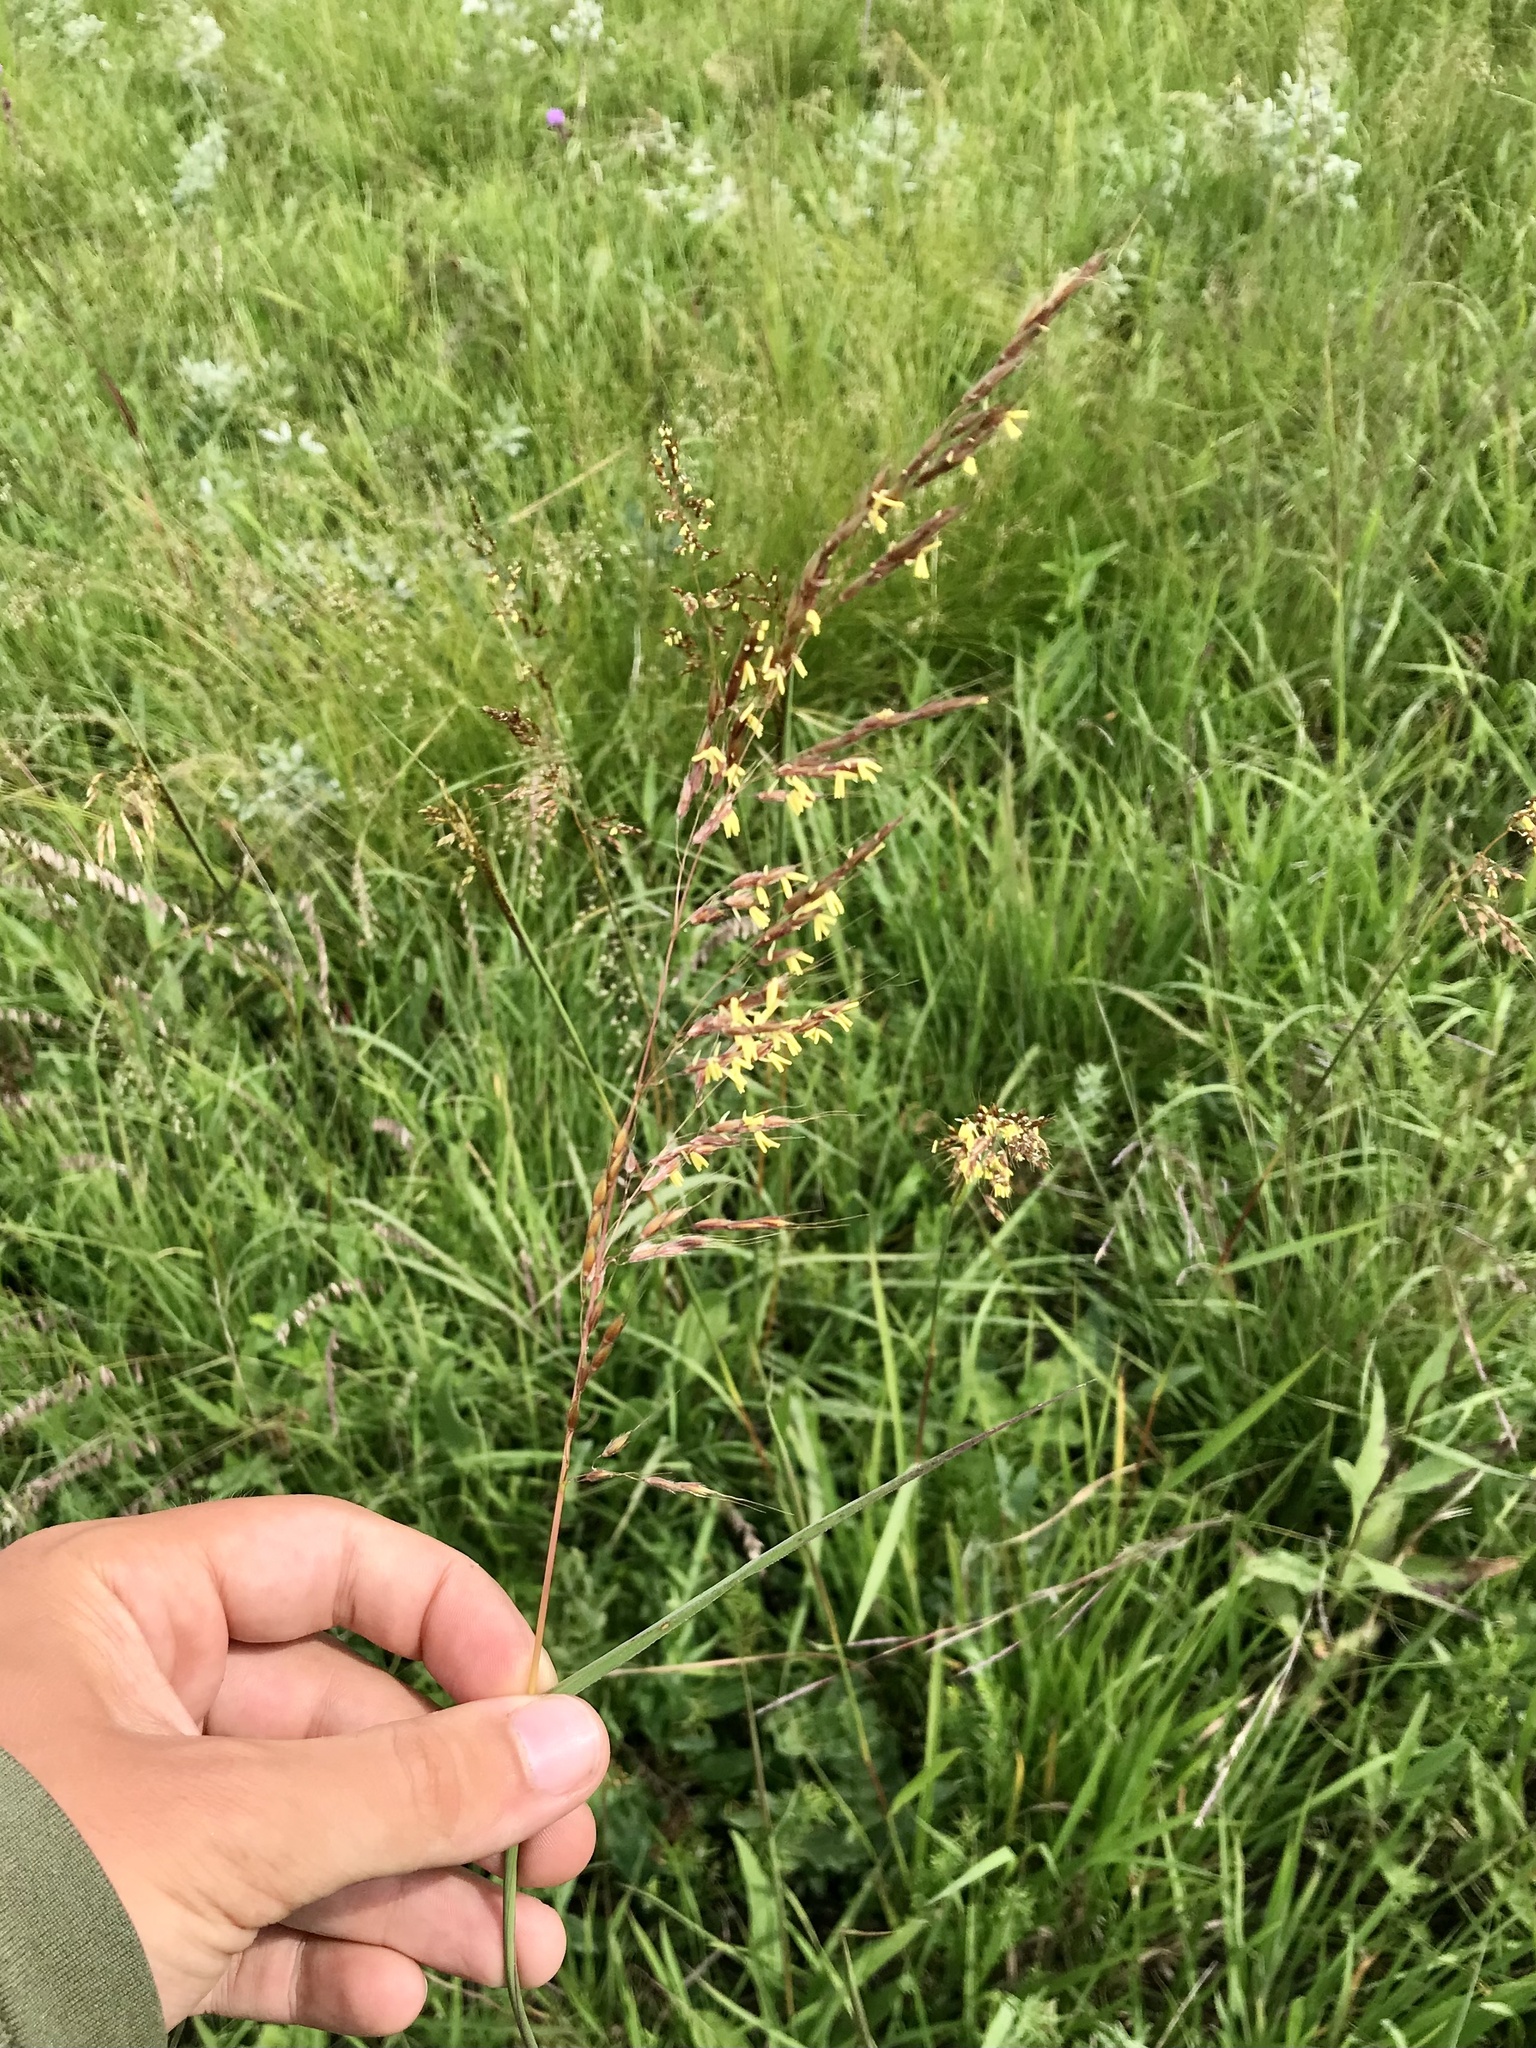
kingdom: Plantae
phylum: Tracheophyta
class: Liliopsida
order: Poales
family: Poaceae
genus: Sorghastrum
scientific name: Sorghastrum nutans
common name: Indian grass
